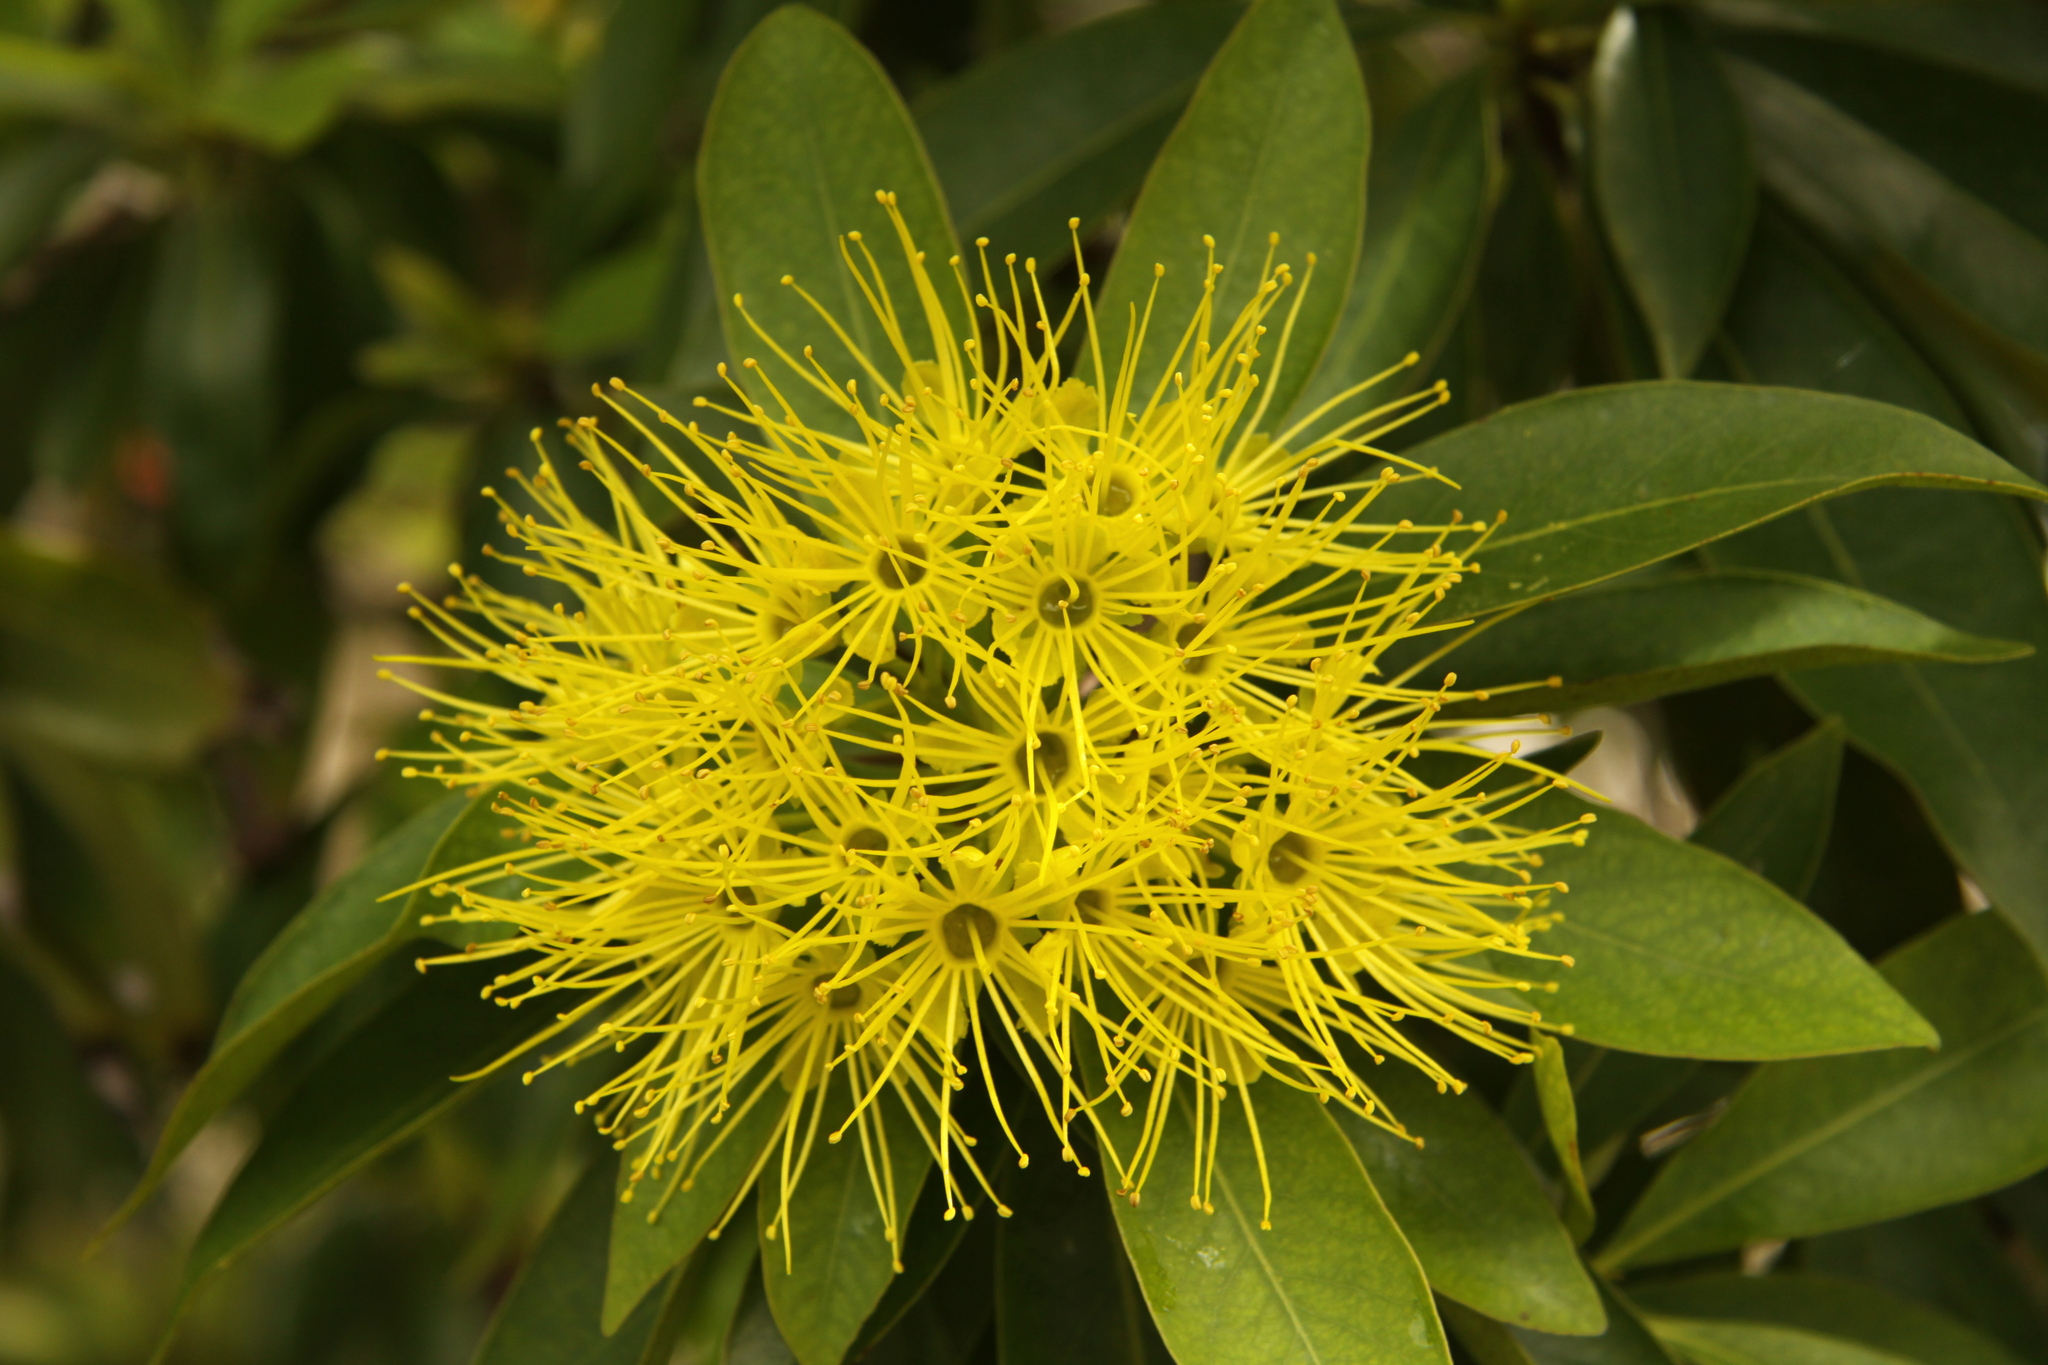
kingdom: Plantae
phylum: Tracheophyta
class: Magnoliopsida
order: Myrtales
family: Myrtaceae
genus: Xanthostemon
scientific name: Xanthostemon chrysanthus
